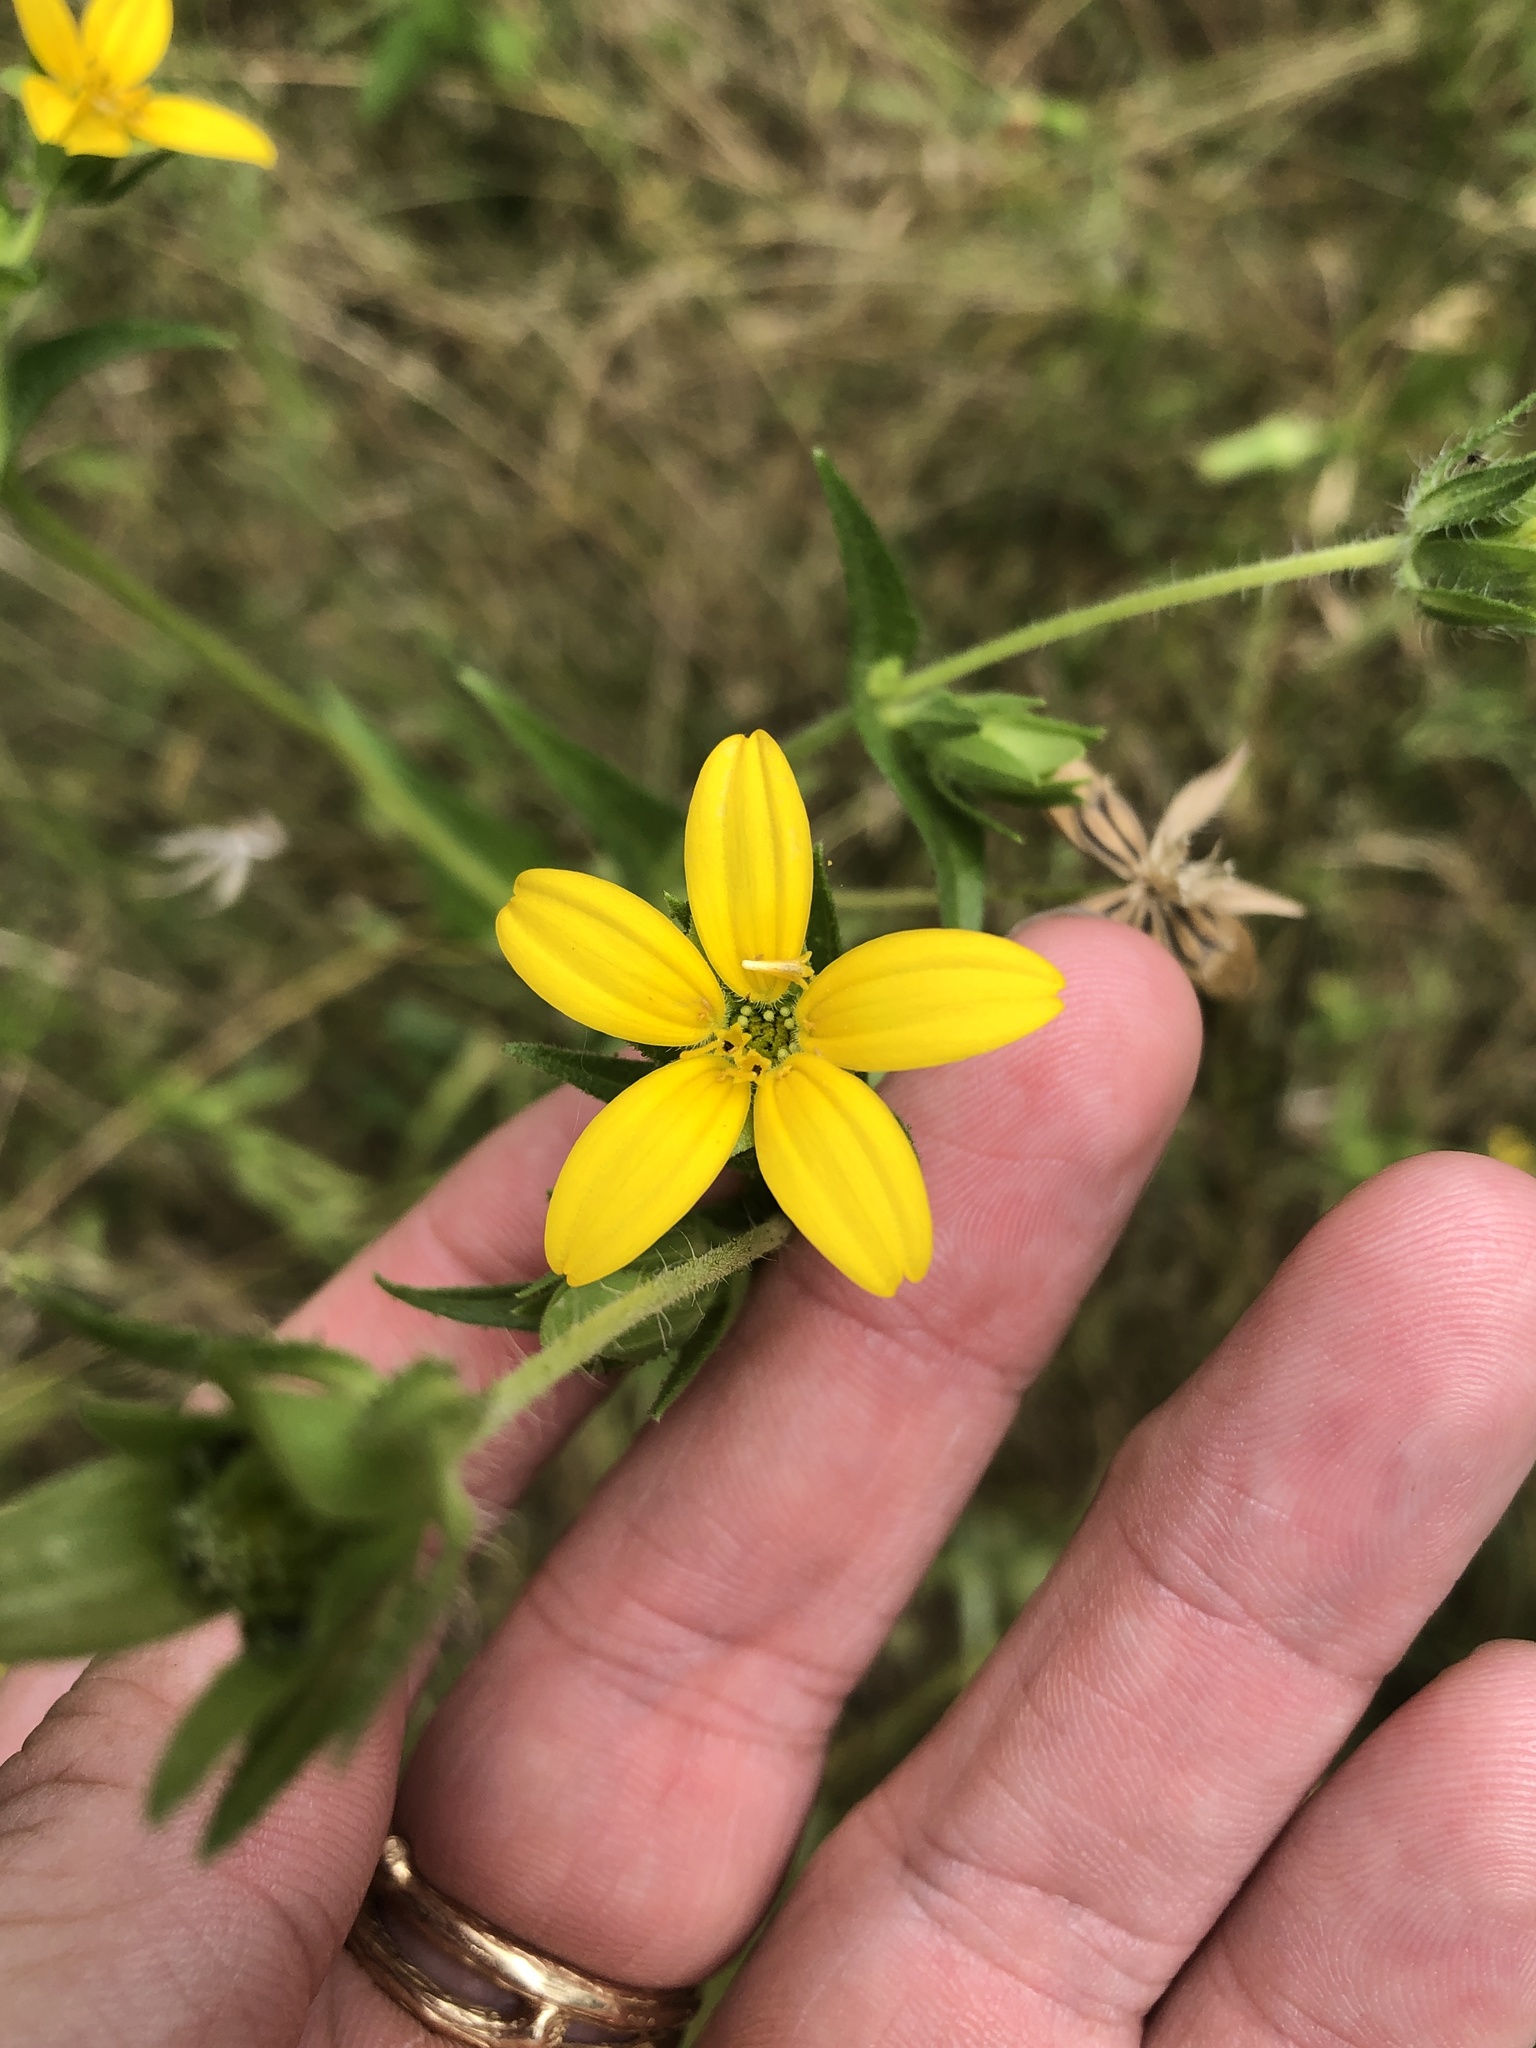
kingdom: Plantae
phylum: Tracheophyta
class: Magnoliopsida
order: Asterales
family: Asteraceae
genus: Lindheimera
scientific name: Lindheimera texana
